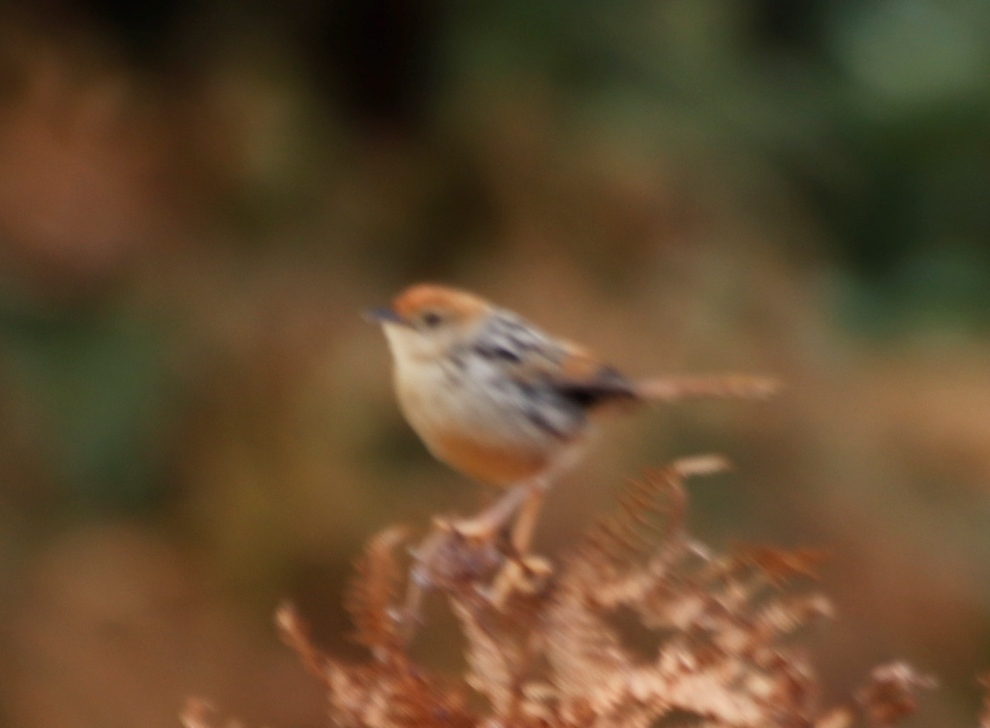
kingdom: Animalia
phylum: Chordata
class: Aves
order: Passeriformes
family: Cisticolidae
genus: Cisticola
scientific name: Cisticola tinniens
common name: Levaillant's cisticola
